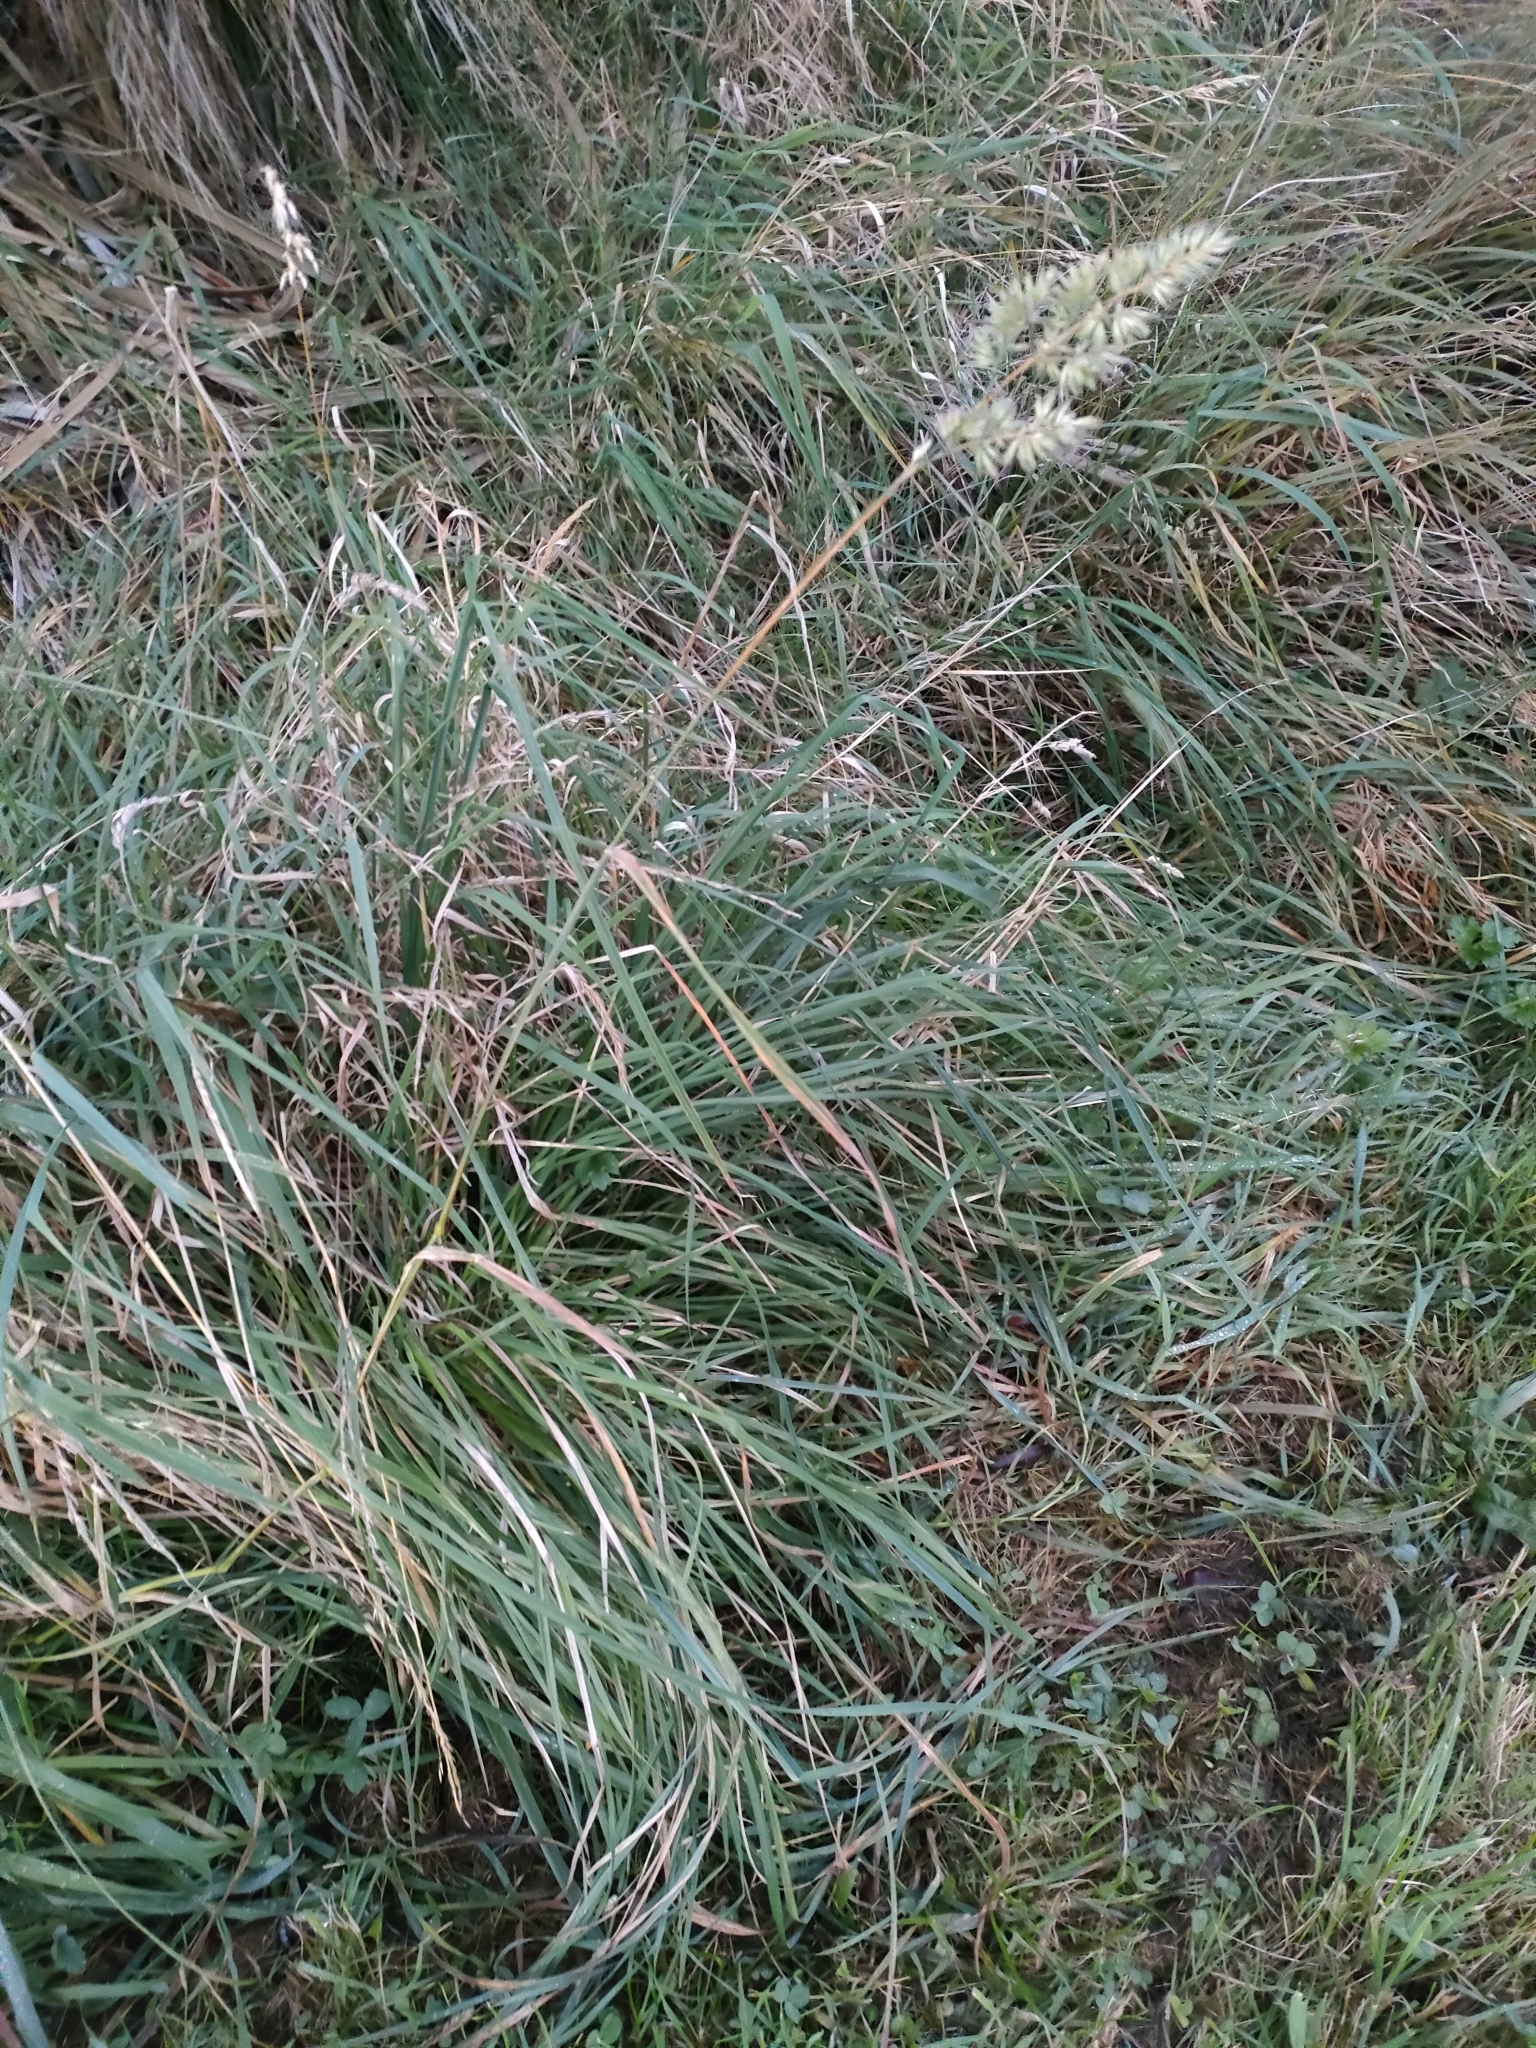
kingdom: Plantae
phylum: Tracheophyta
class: Liliopsida
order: Poales
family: Poaceae
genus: Dactylis
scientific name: Dactylis glomerata
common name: Orchardgrass
